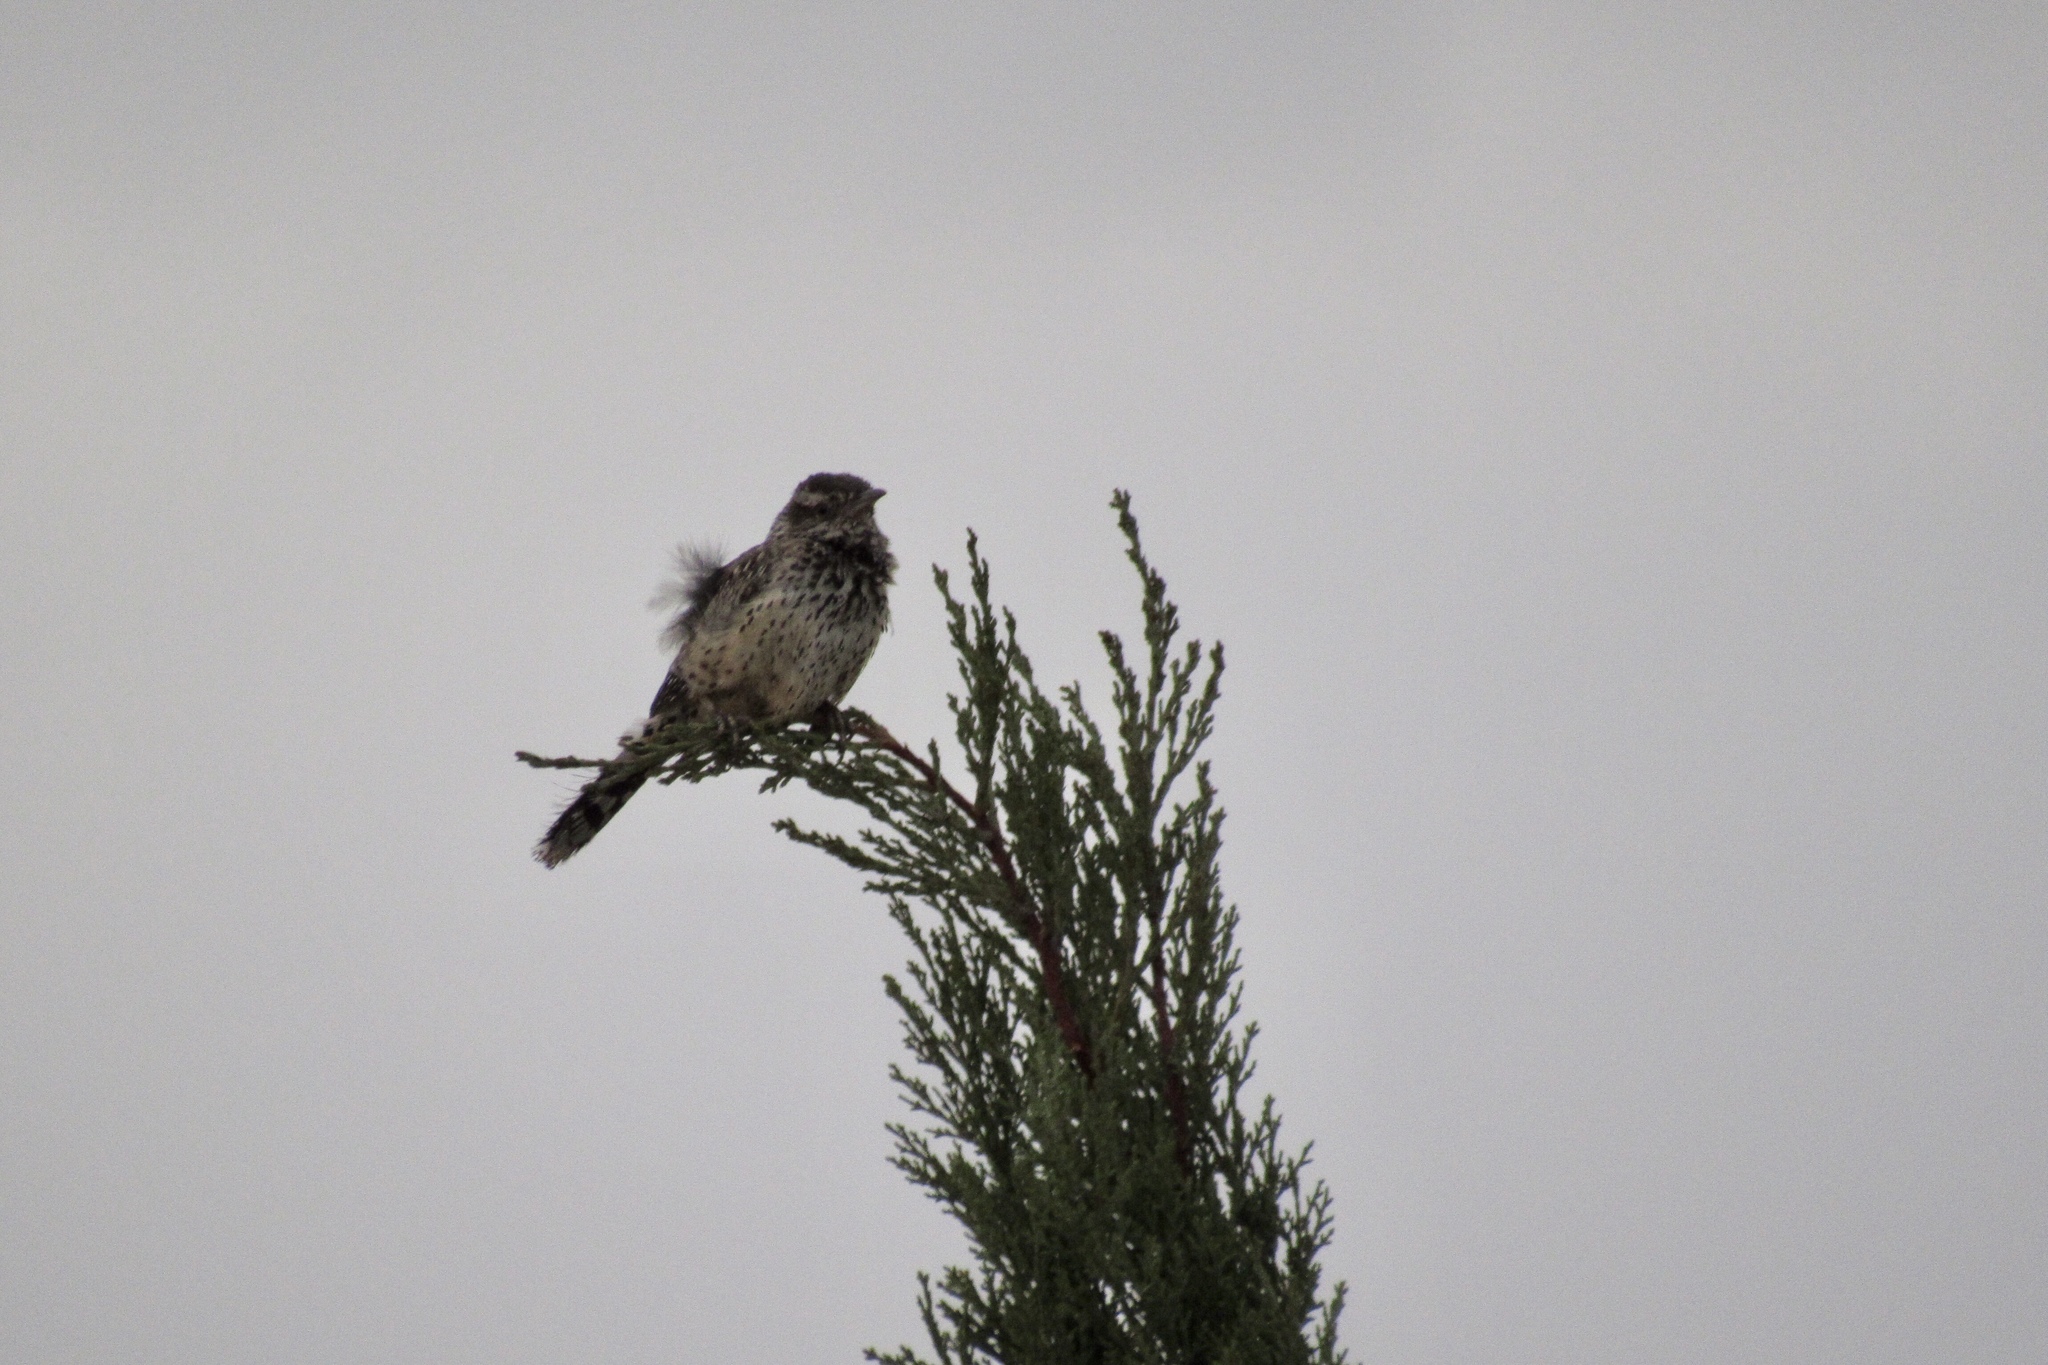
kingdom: Animalia
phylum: Chordata
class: Aves
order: Passeriformes
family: Troglodytidae
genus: Campylorhynchus
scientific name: Campylorhynchus brunneicapillus
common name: Cactus wren
